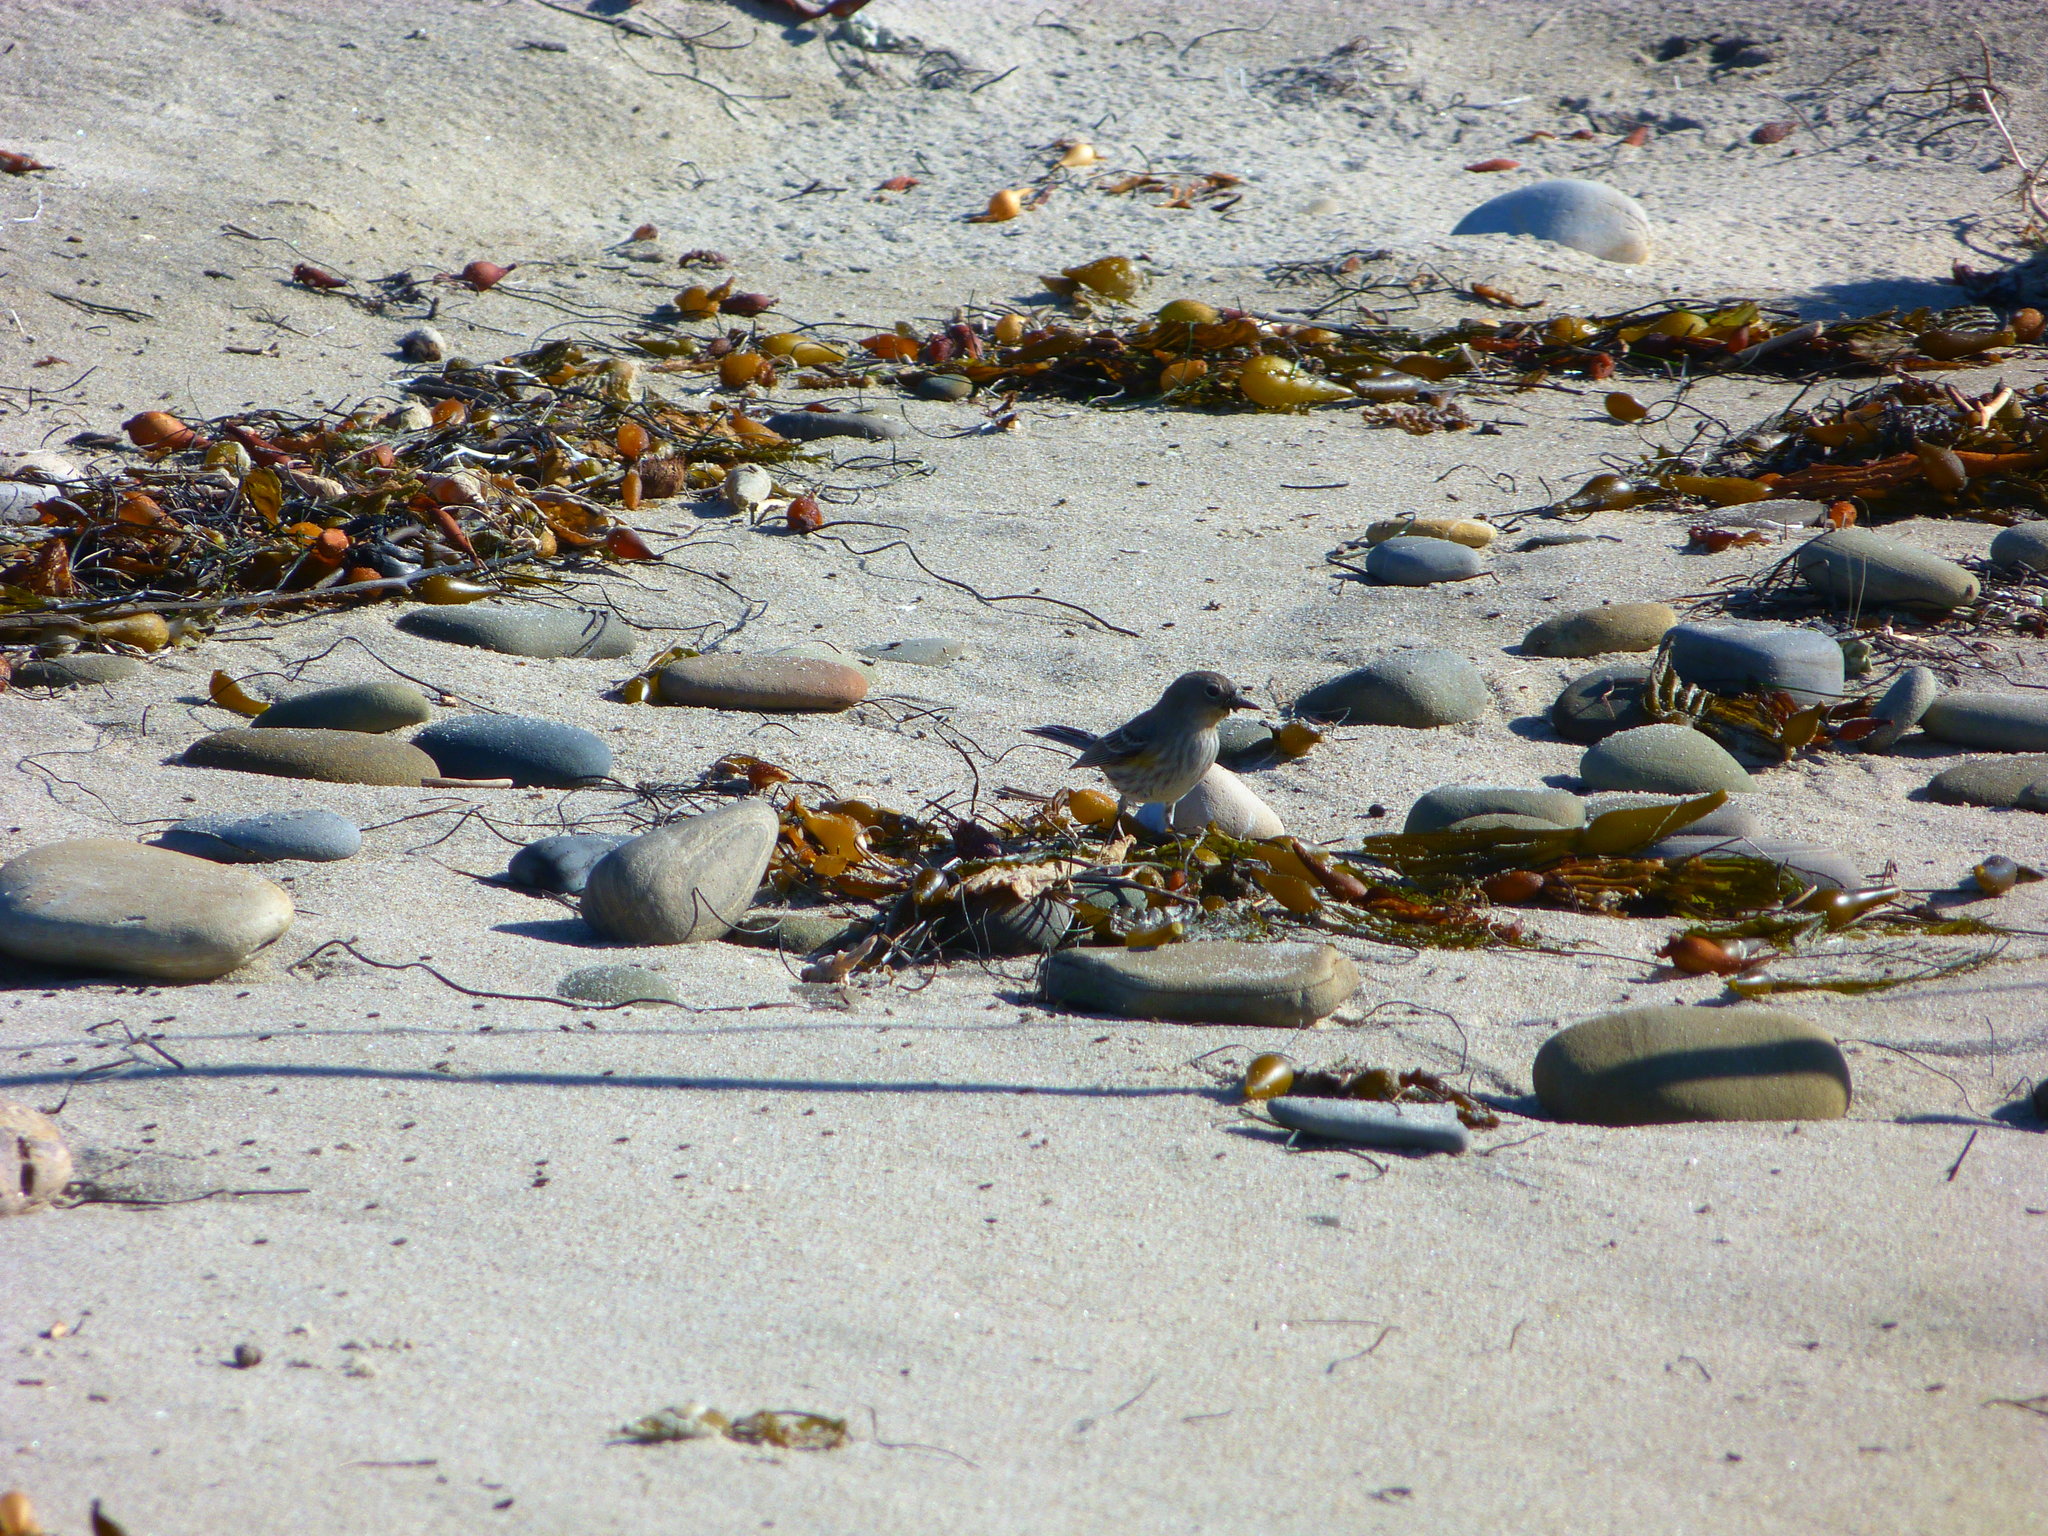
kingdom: Animalia
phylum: Chordata
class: Aves
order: Passeriformes
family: Parulidae
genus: Setophaga
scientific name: Setophaga coronata
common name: Myrtle warbler
